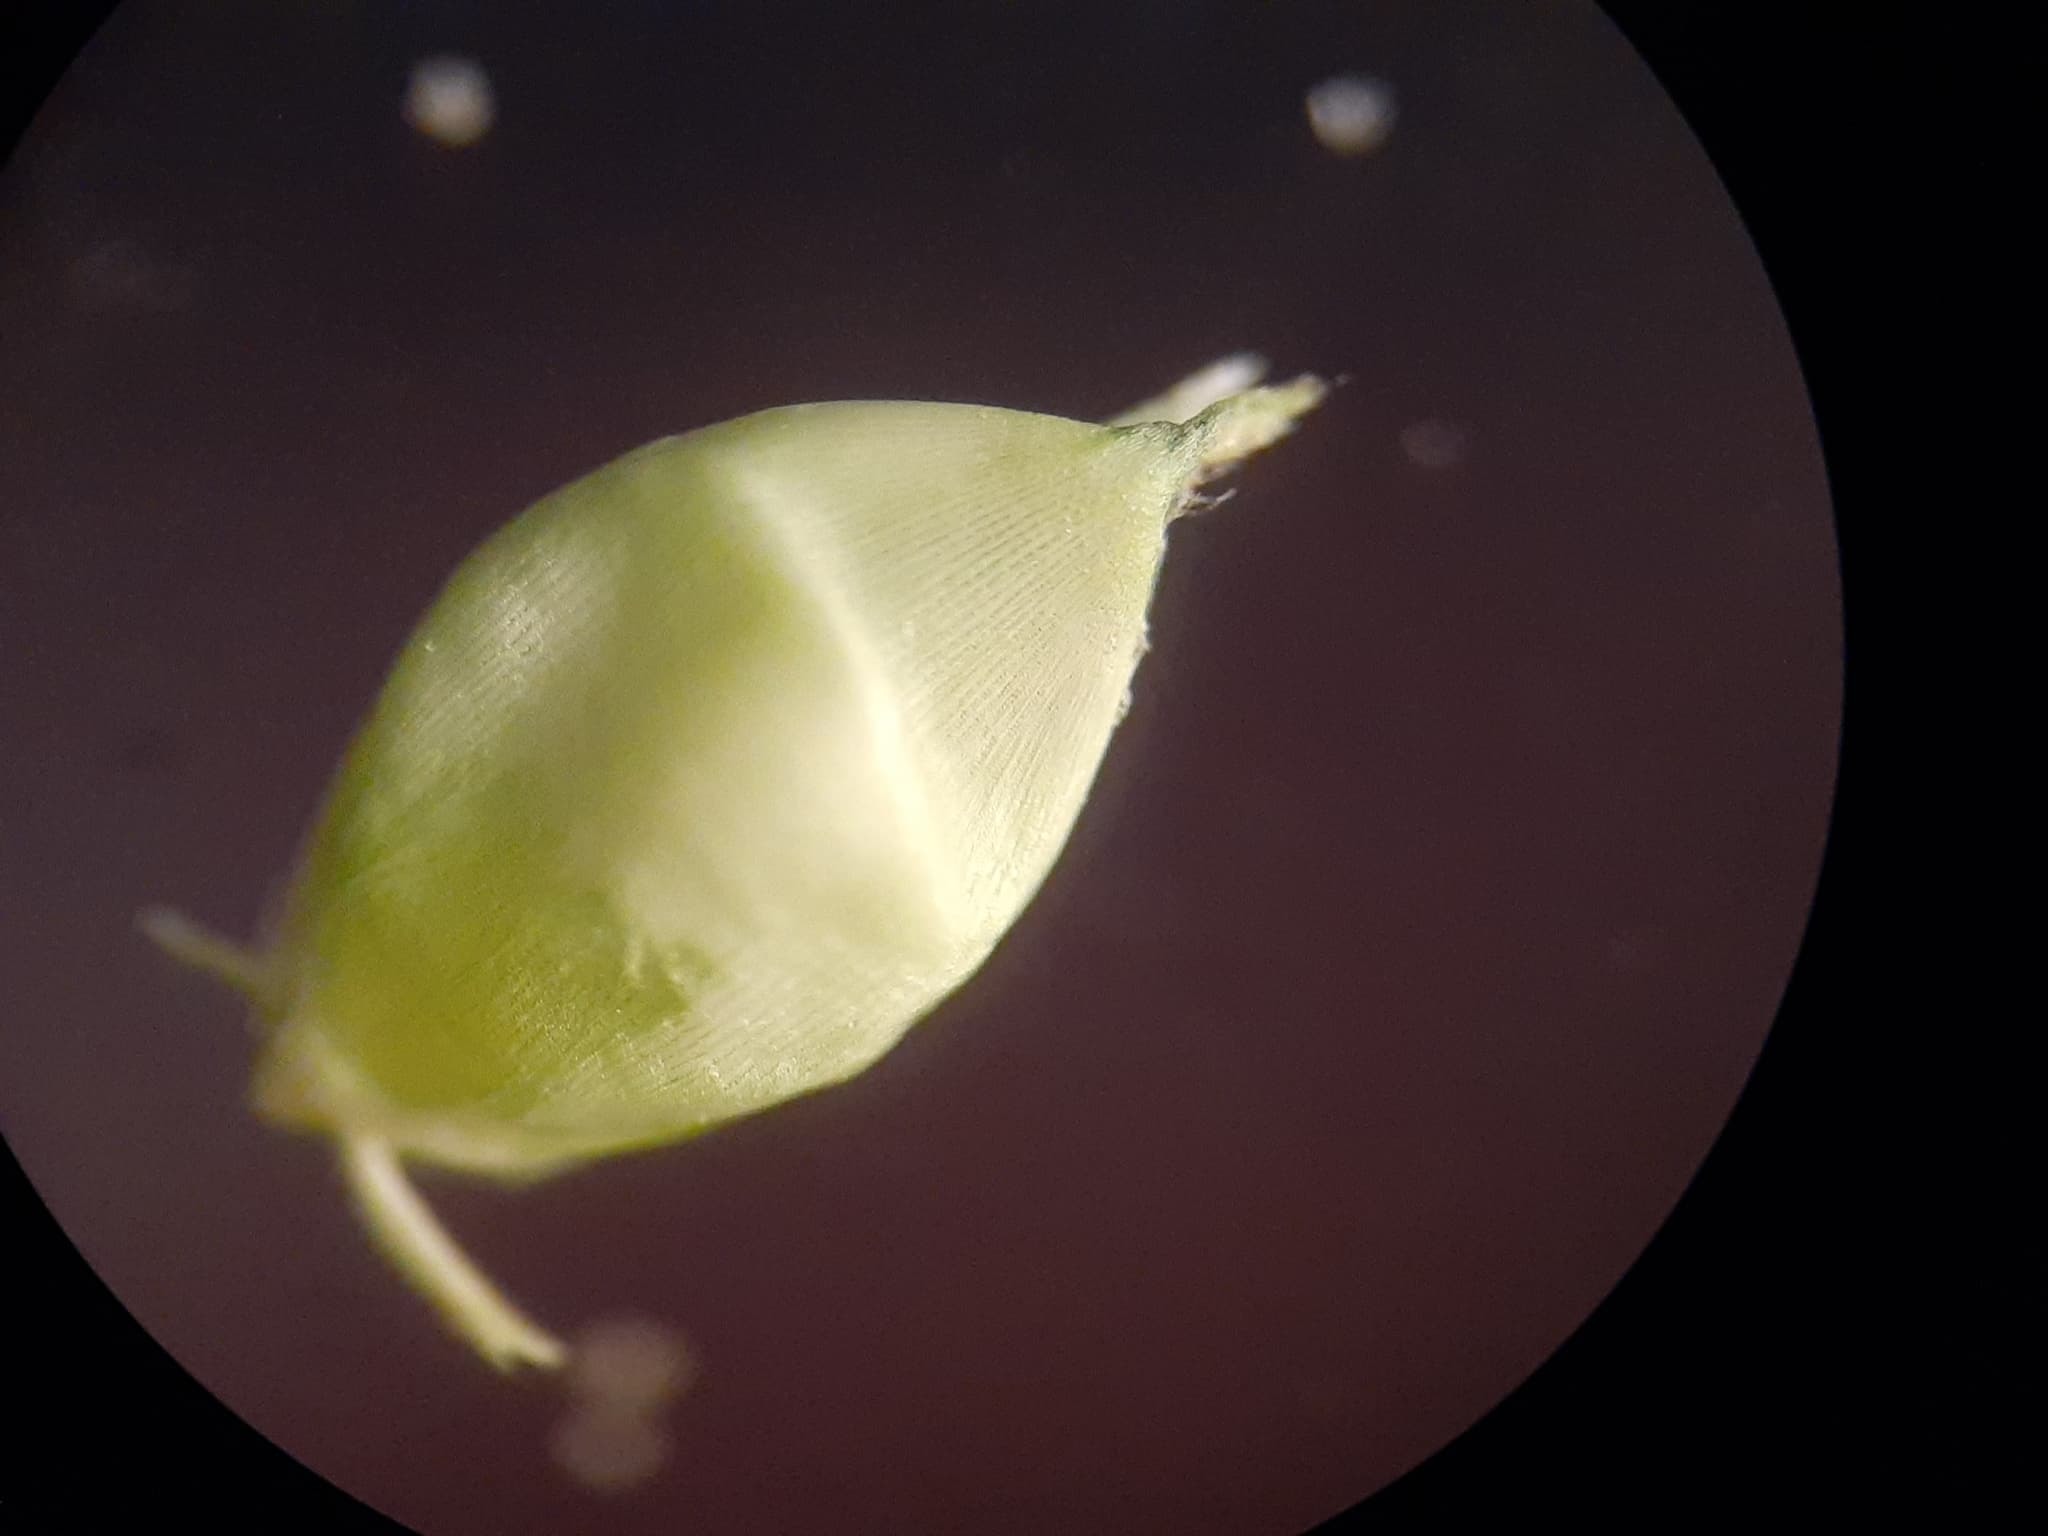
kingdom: Plantae
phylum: Tracheophyta
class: Liliopsida
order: Poales
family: Poaceae
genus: Echinochloa
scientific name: Echinochloa muricata
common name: American barnyard grass
